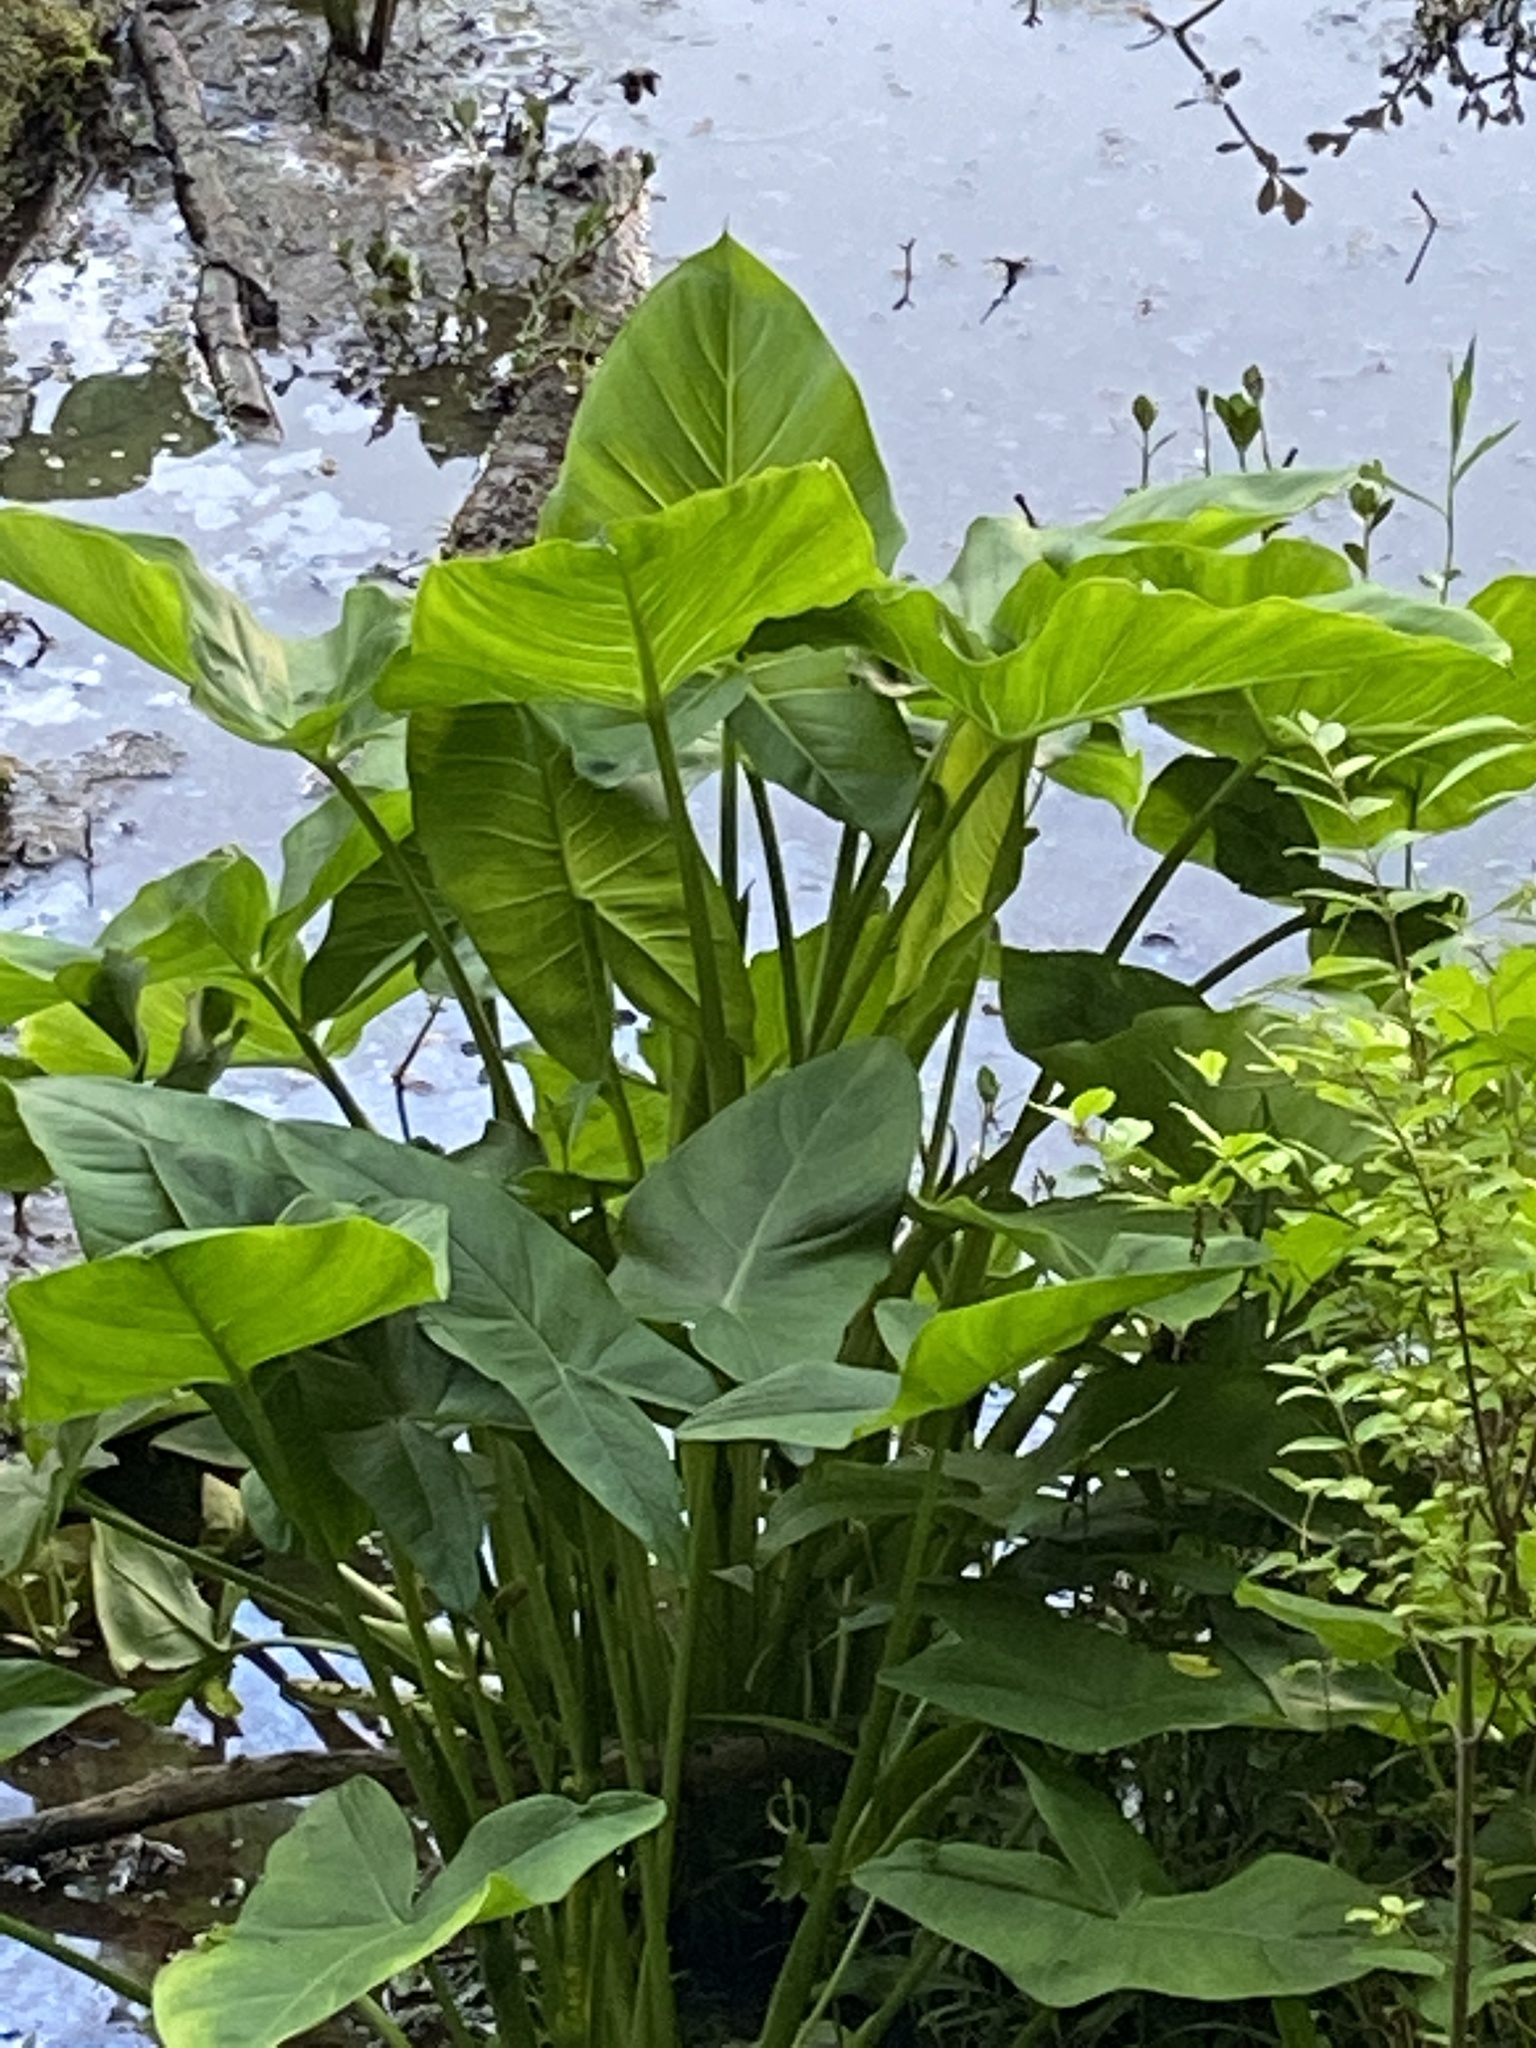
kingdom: Plantae
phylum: Tracheophyta
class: Liliopsida
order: Alismatales
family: Araceae
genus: Peltandra
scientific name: Peltandra virginica
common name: Arrow arum
